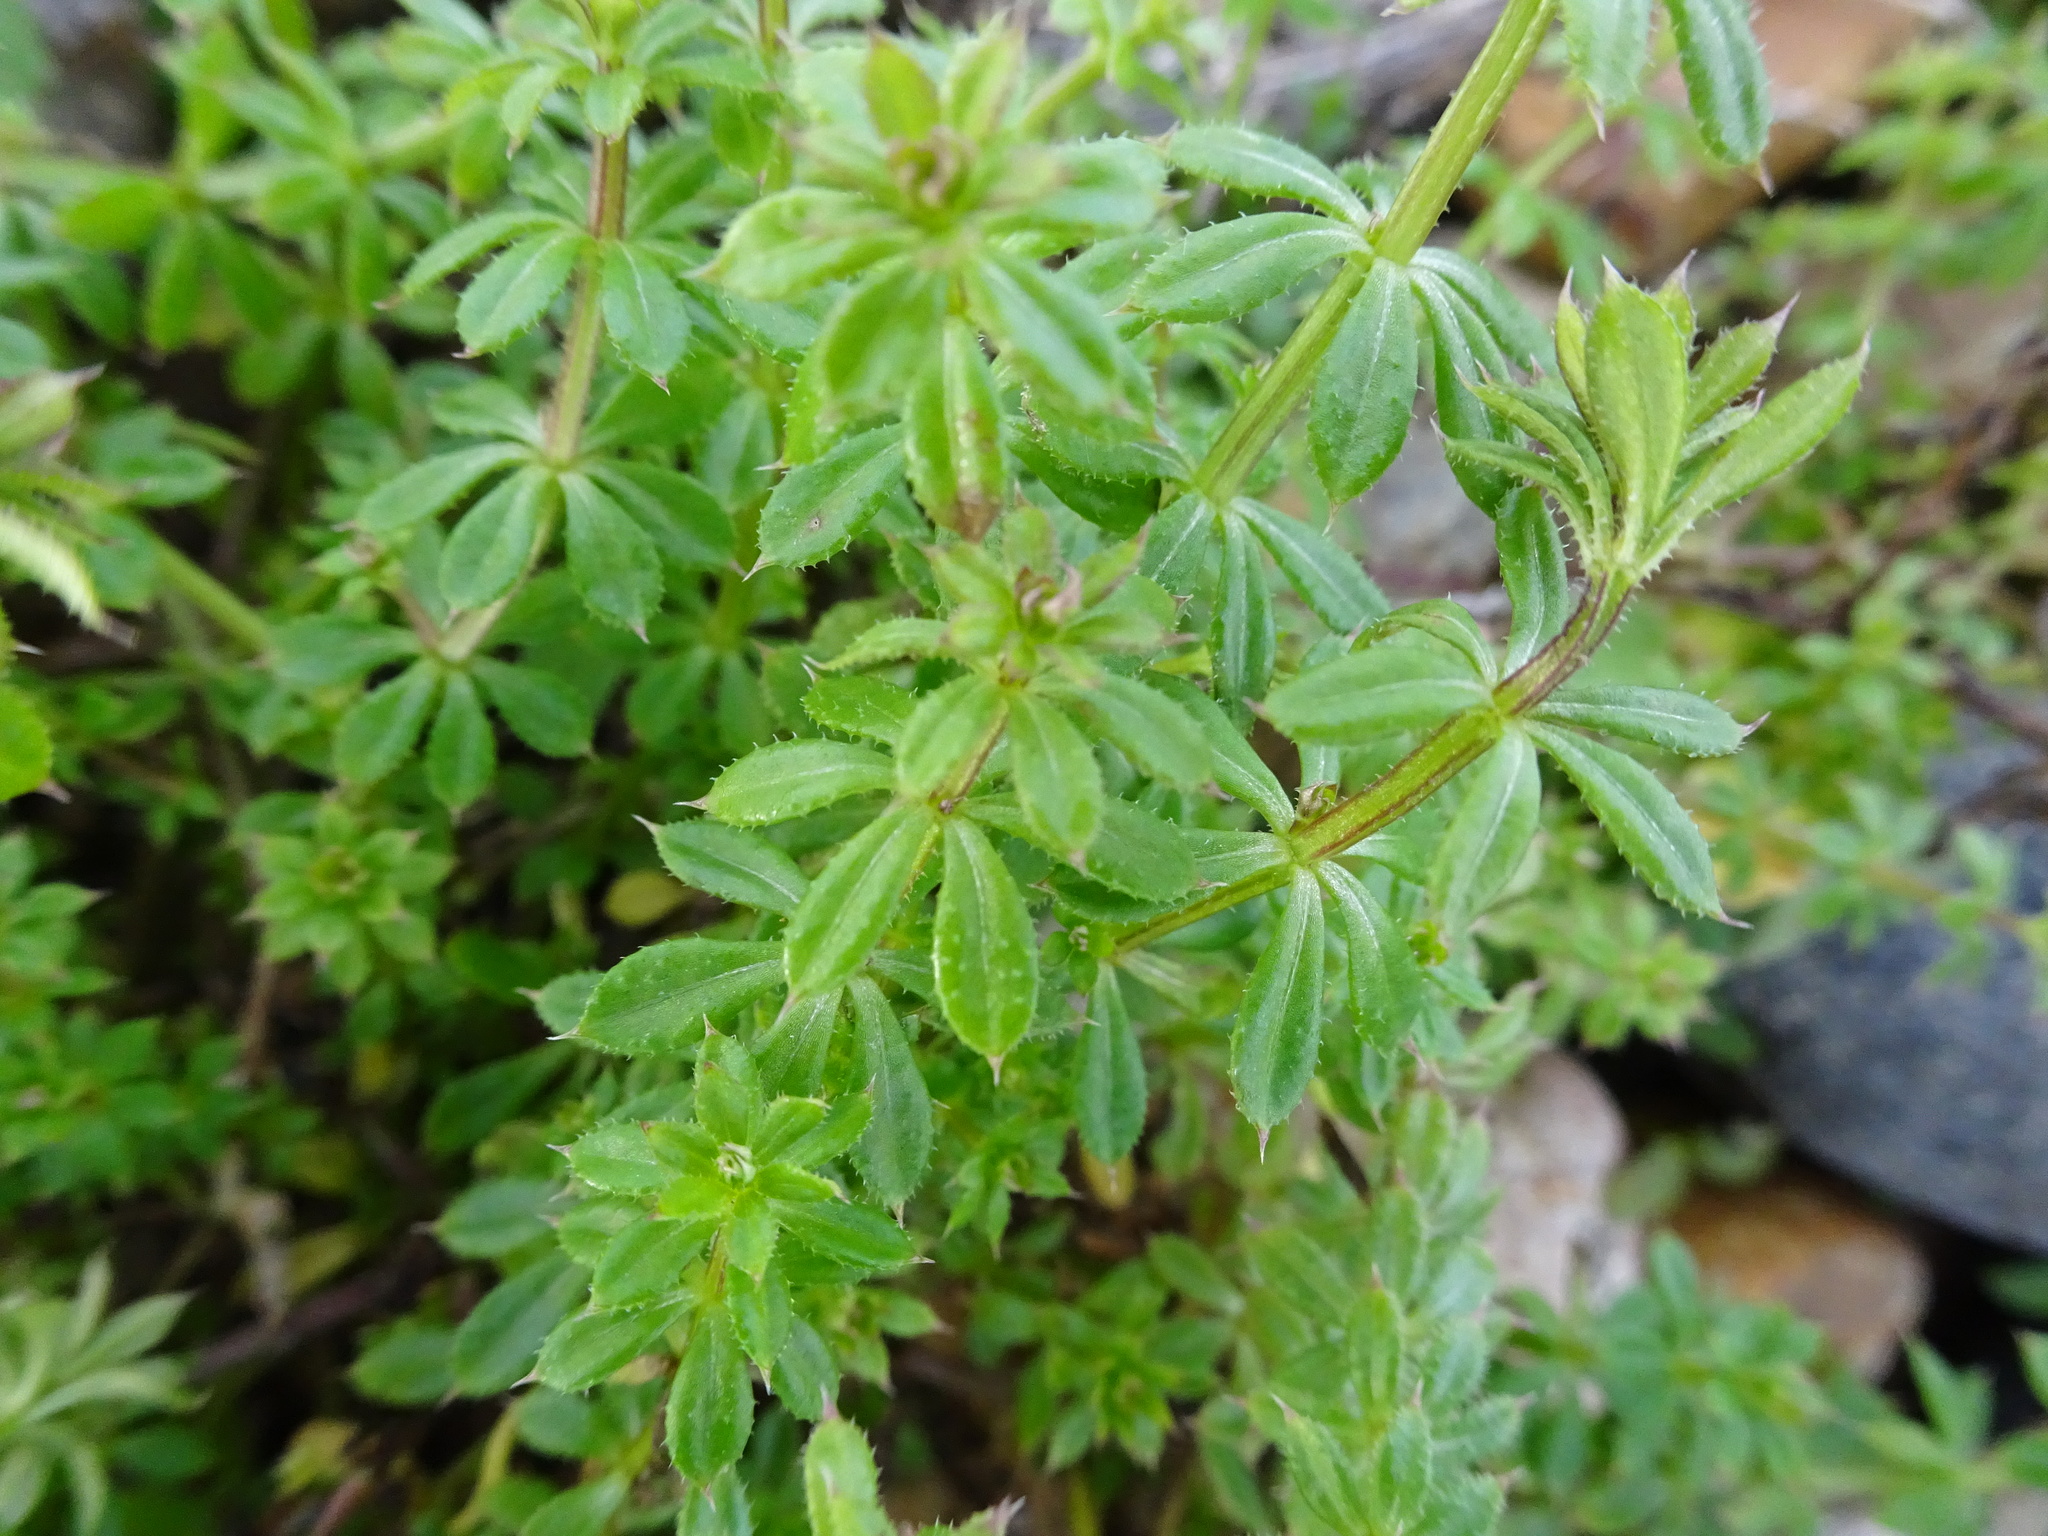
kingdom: Plantae
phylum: Tracheophyta
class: Magnoliopsida
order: Gentianales
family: Rubiaceae
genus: Galium
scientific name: Galium aparine
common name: Cleavers
